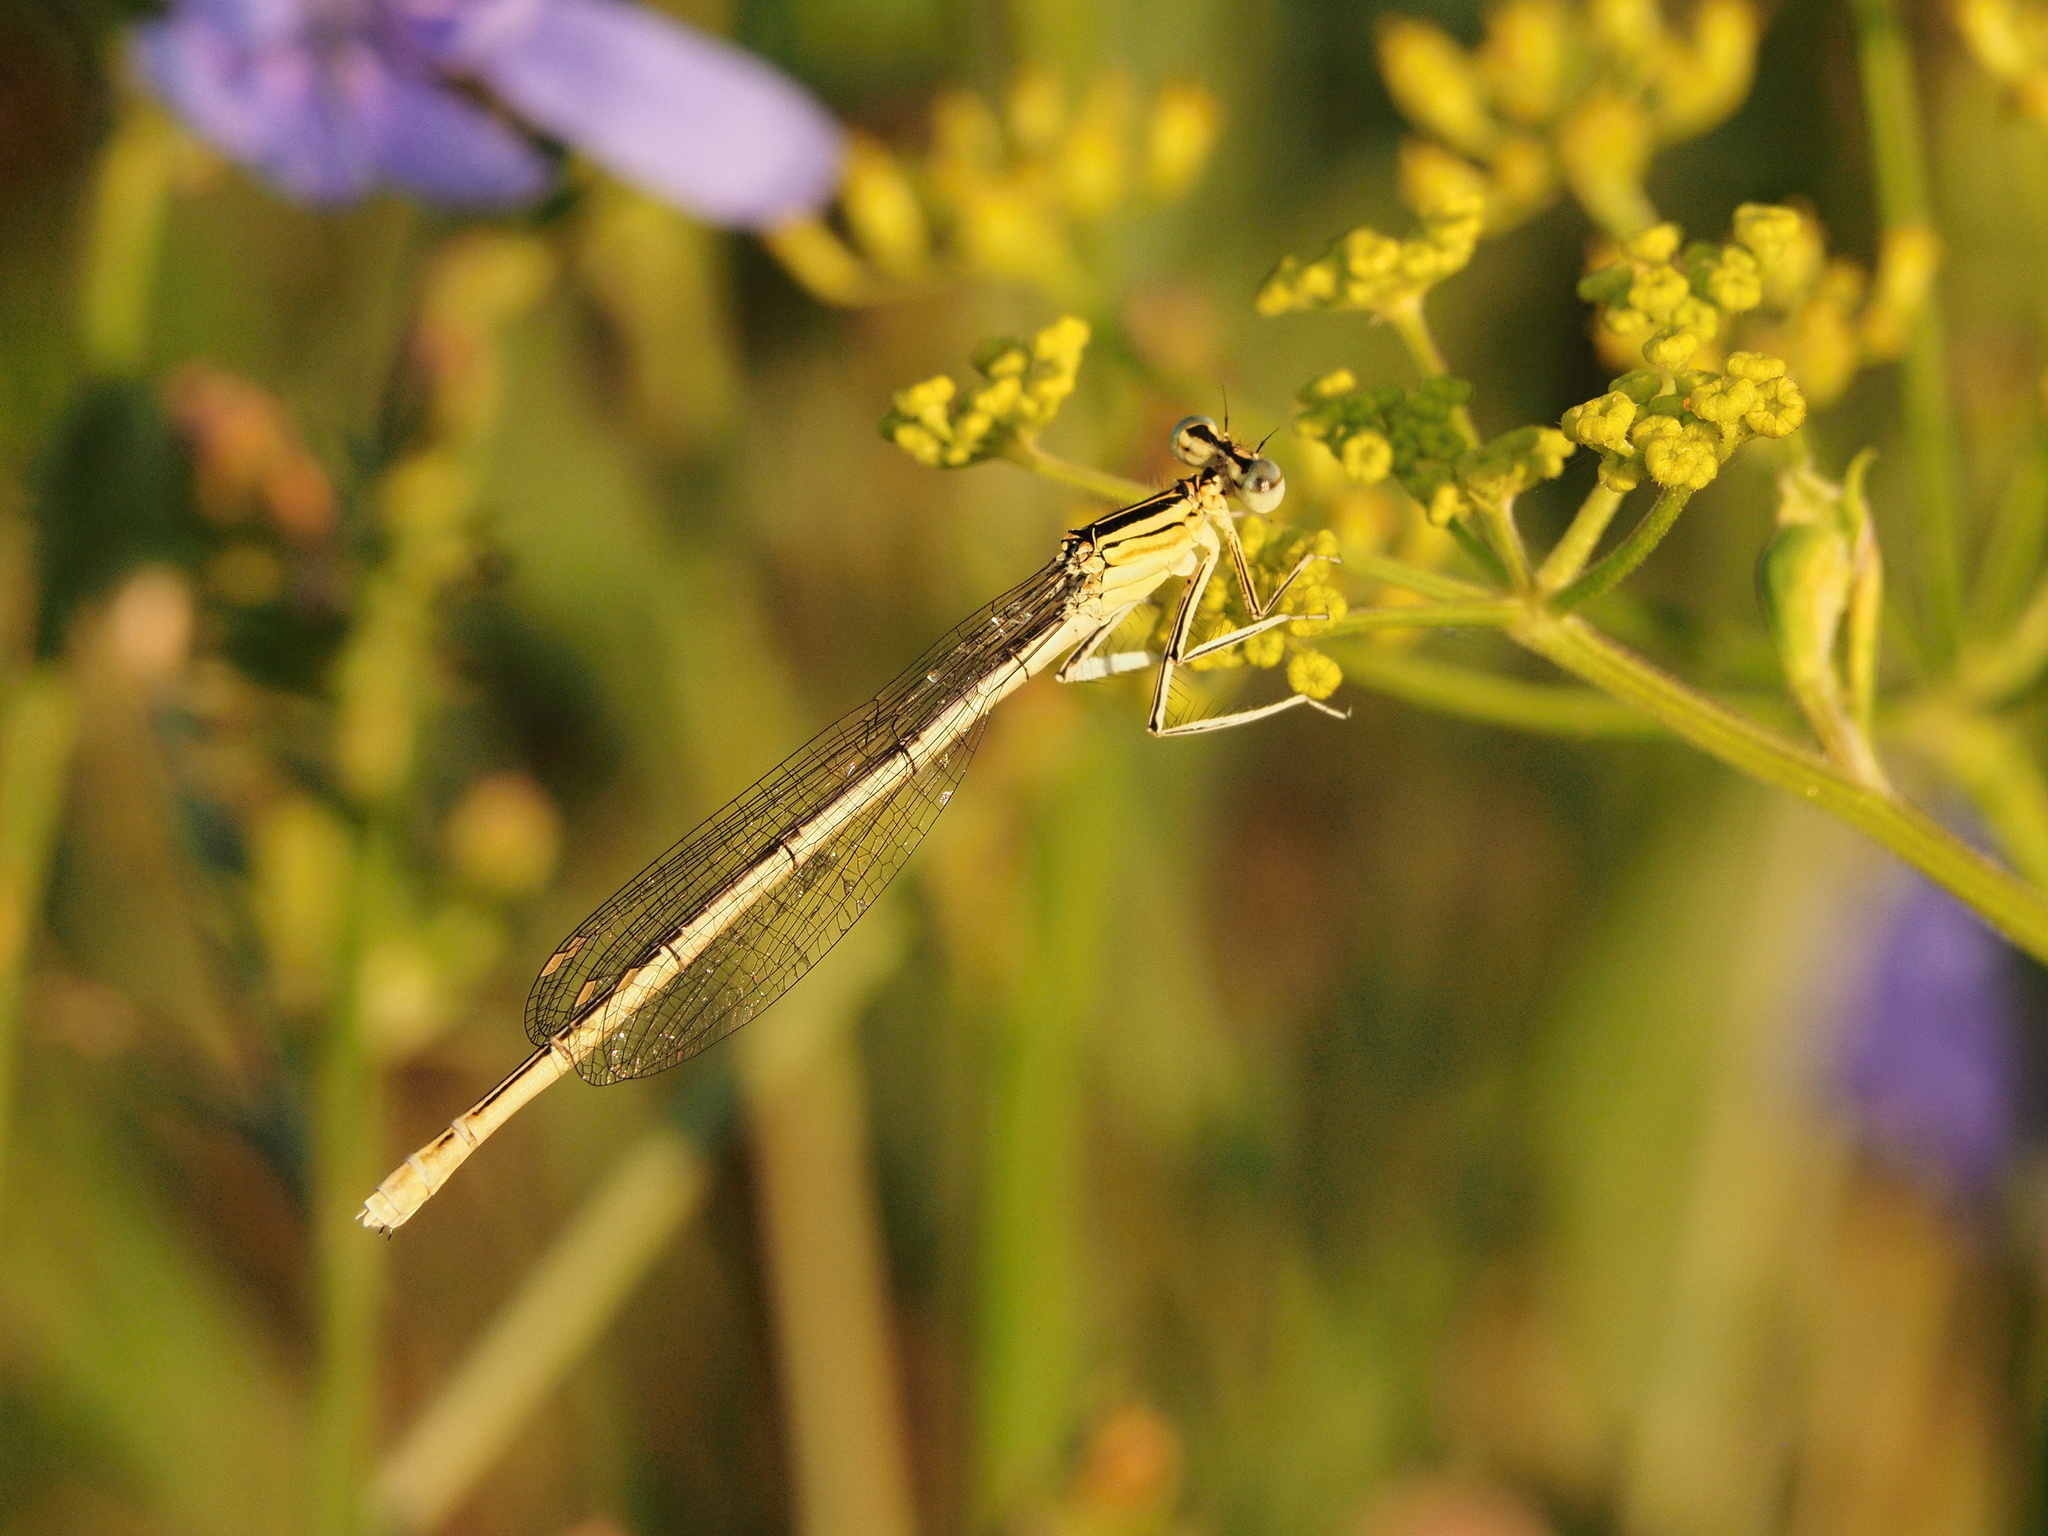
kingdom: Animalia
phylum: Arthropoda
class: Insecta
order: Odonata
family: Platycnemididae
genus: Platycnemis
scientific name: Platycnemis pennipes
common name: White-legged damselfly
